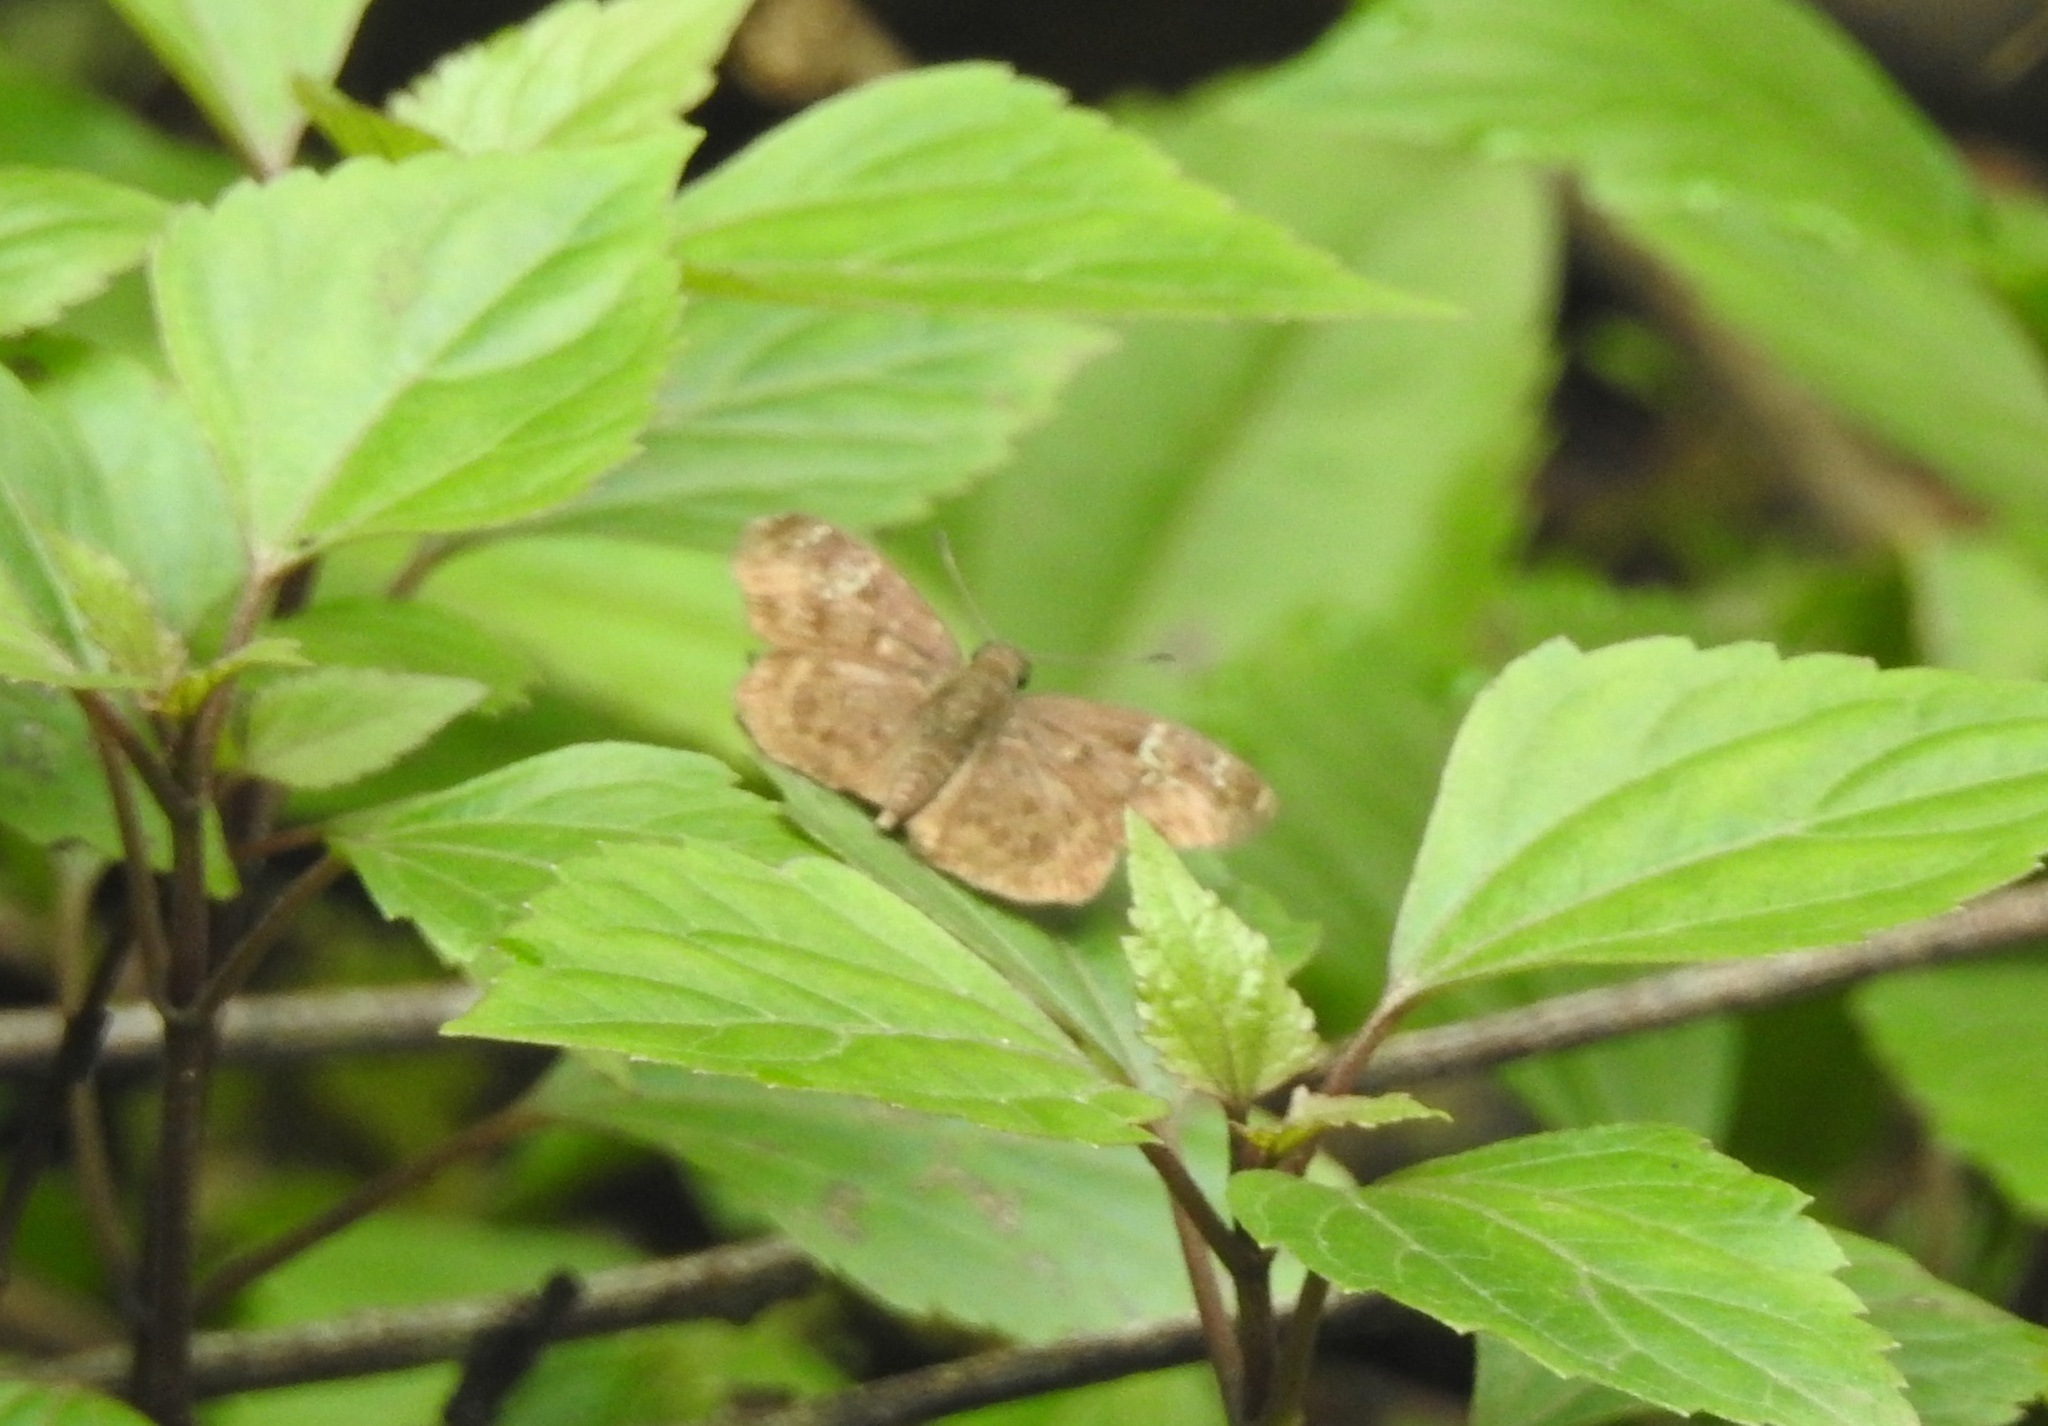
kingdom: Animalia
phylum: Arthropoda
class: Insecta
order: Lepidoptera
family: Hesperiidae
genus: Sarangesa
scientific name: Sarangesa dasahara
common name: Common small flat
